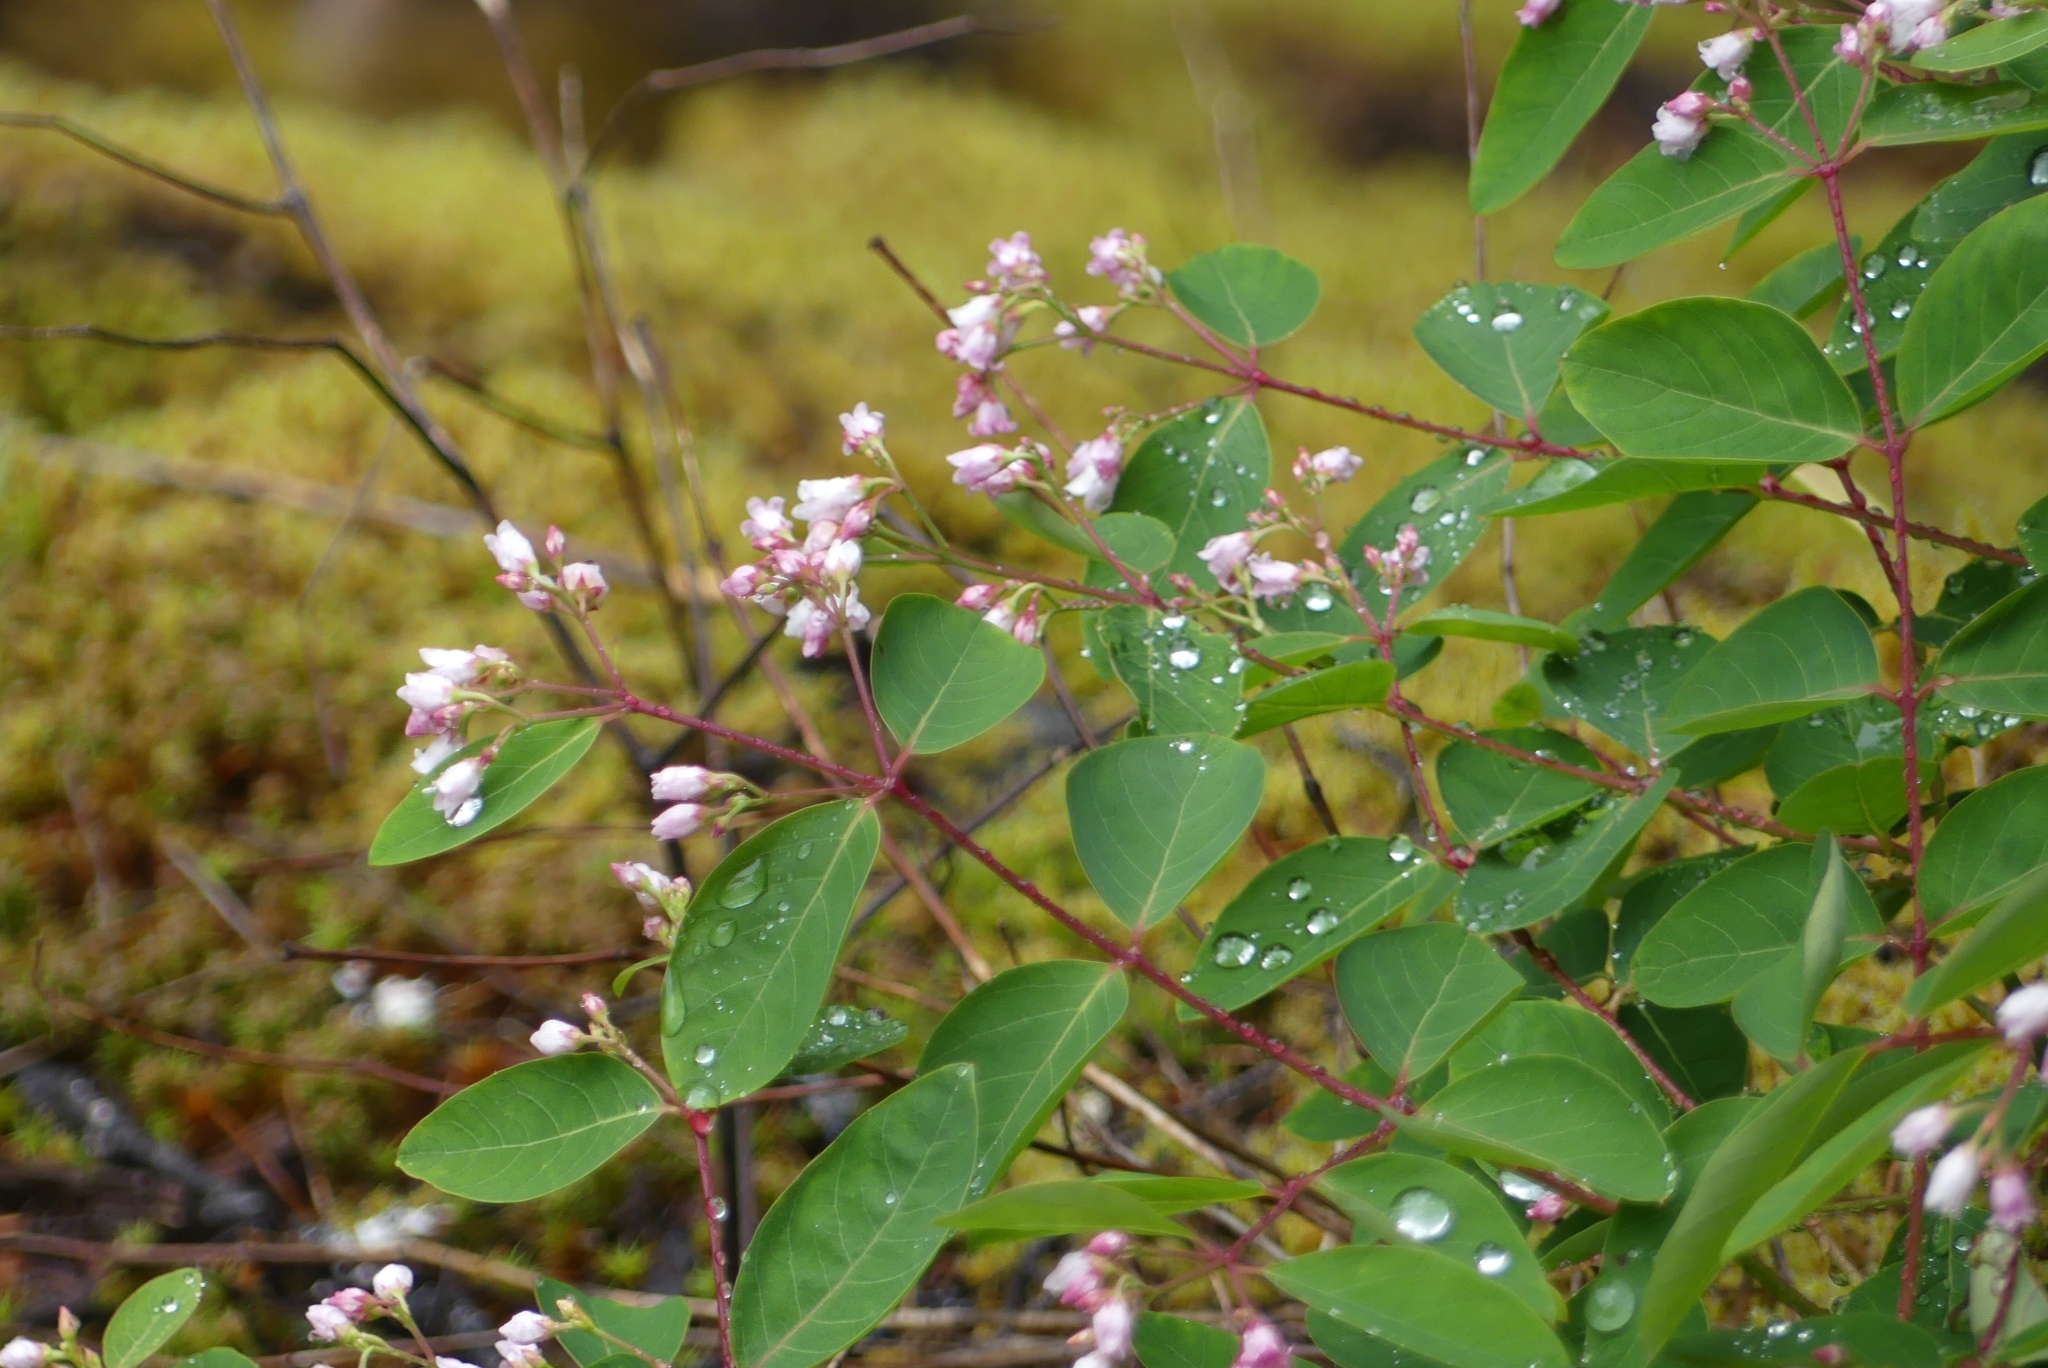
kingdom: Plantae
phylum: Tracheophyta
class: Magnoliopsida
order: Gentianales
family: Apocynaceae
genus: Apocynum
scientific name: Apocynum androsaemifolium
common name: Spreading dogbane
